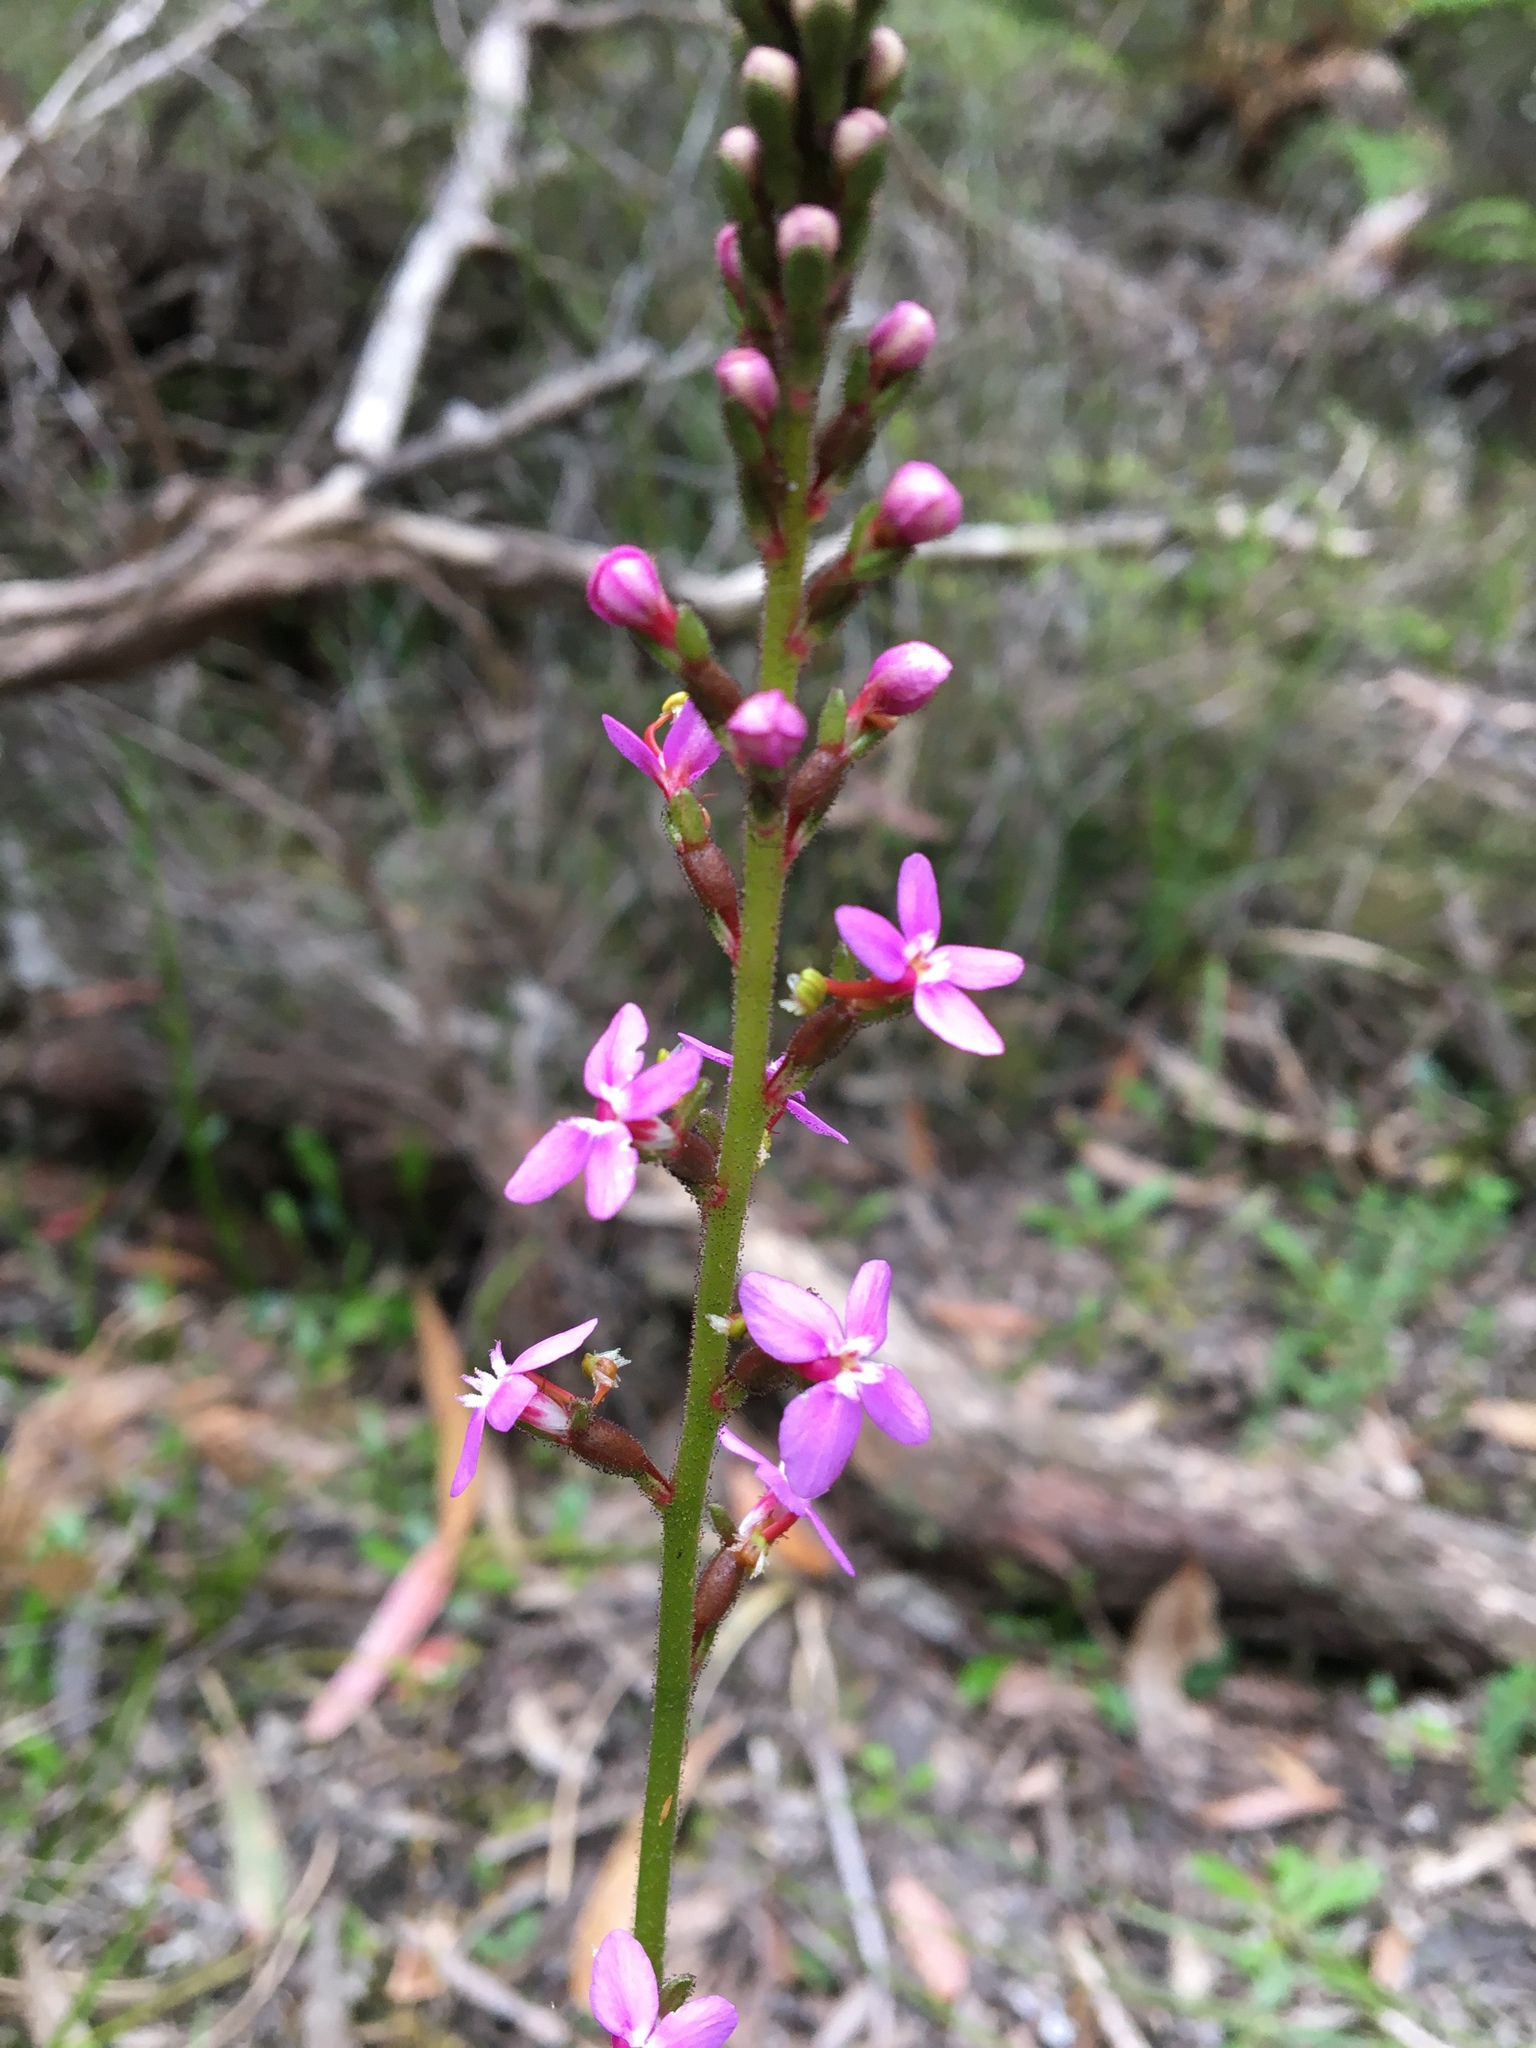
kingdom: Plantae
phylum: Tracheophyta
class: Magnoliopsida
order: Asterales
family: Stylidiaceae
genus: Stylidium
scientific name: Stylidium graminifolium
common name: Grass triggerplant
